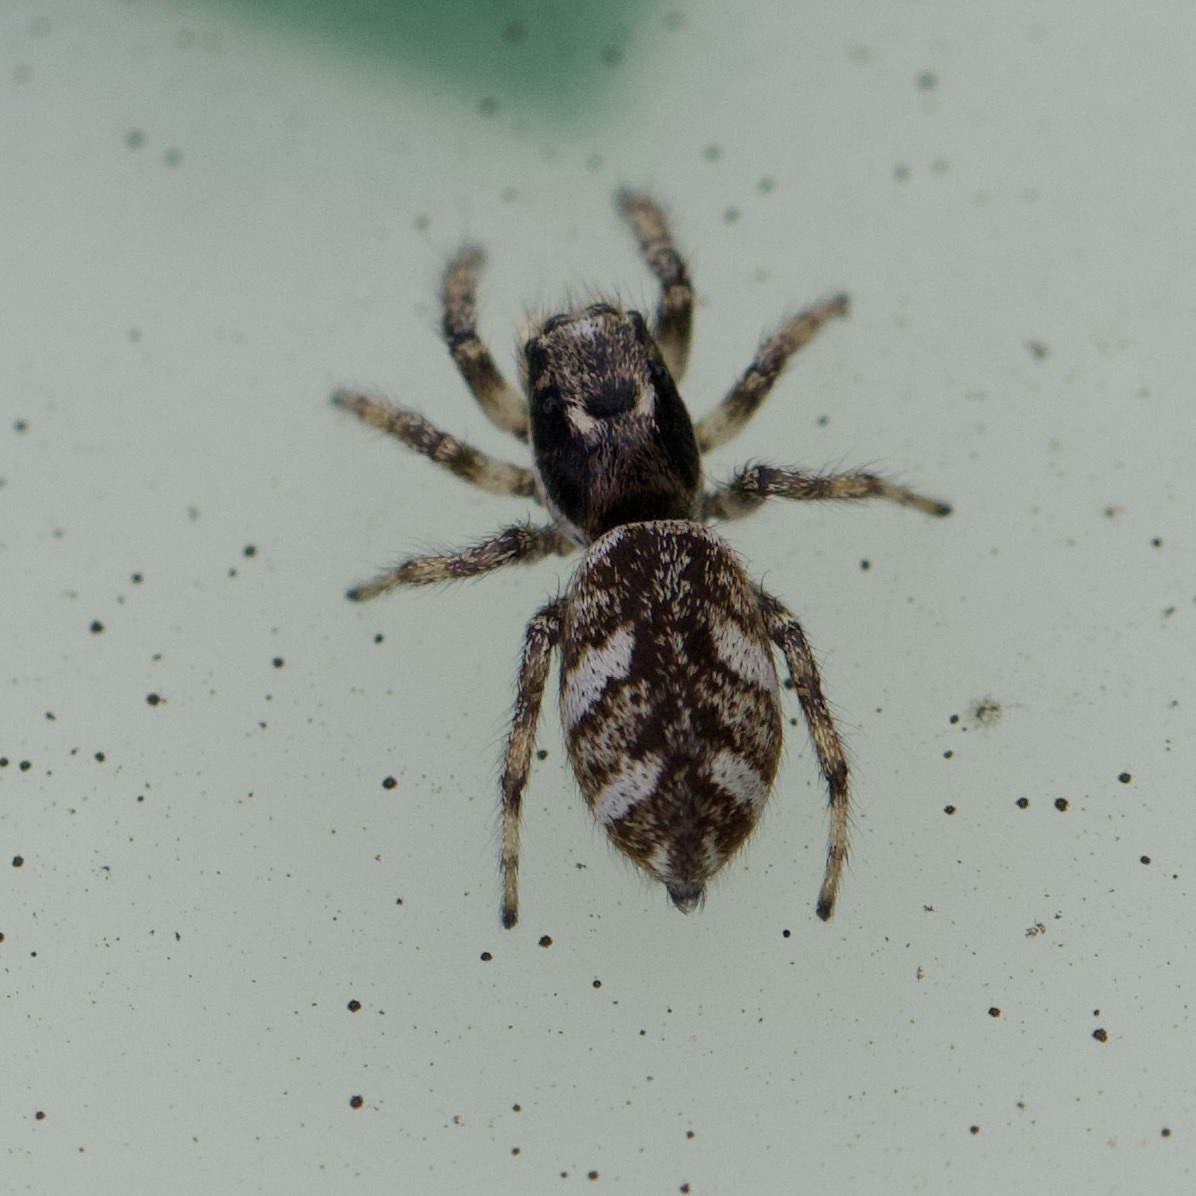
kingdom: Animalia
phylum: Arthropoda
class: Arachnida
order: Araneae
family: Salticidae
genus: Salticus
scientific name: Salticus scenicus
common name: Zebra jumper
